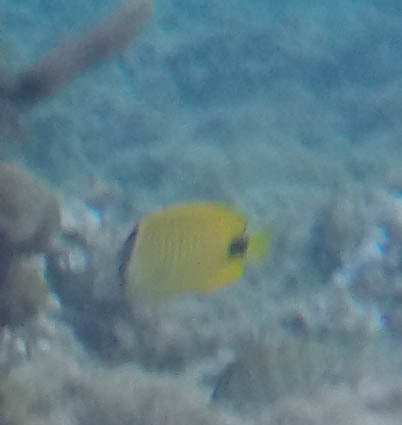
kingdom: Animalia
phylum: Chordata
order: Perciformes
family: Chaetodontidae
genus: Chaetodon
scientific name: Chaetodon miliaris
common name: Lemon butterflyfish
